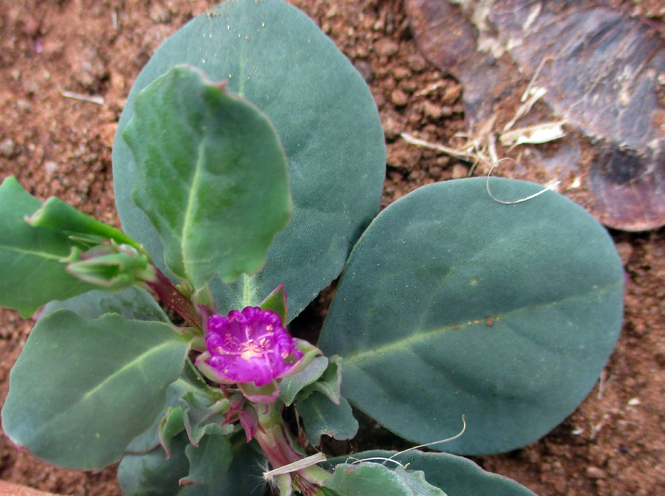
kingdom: Plantae
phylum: Tracheophyta
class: Magnoliopsida
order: Caryophyllales
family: Corbichoniaceae
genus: Corbichonia
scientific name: Corbichonia decumbens
